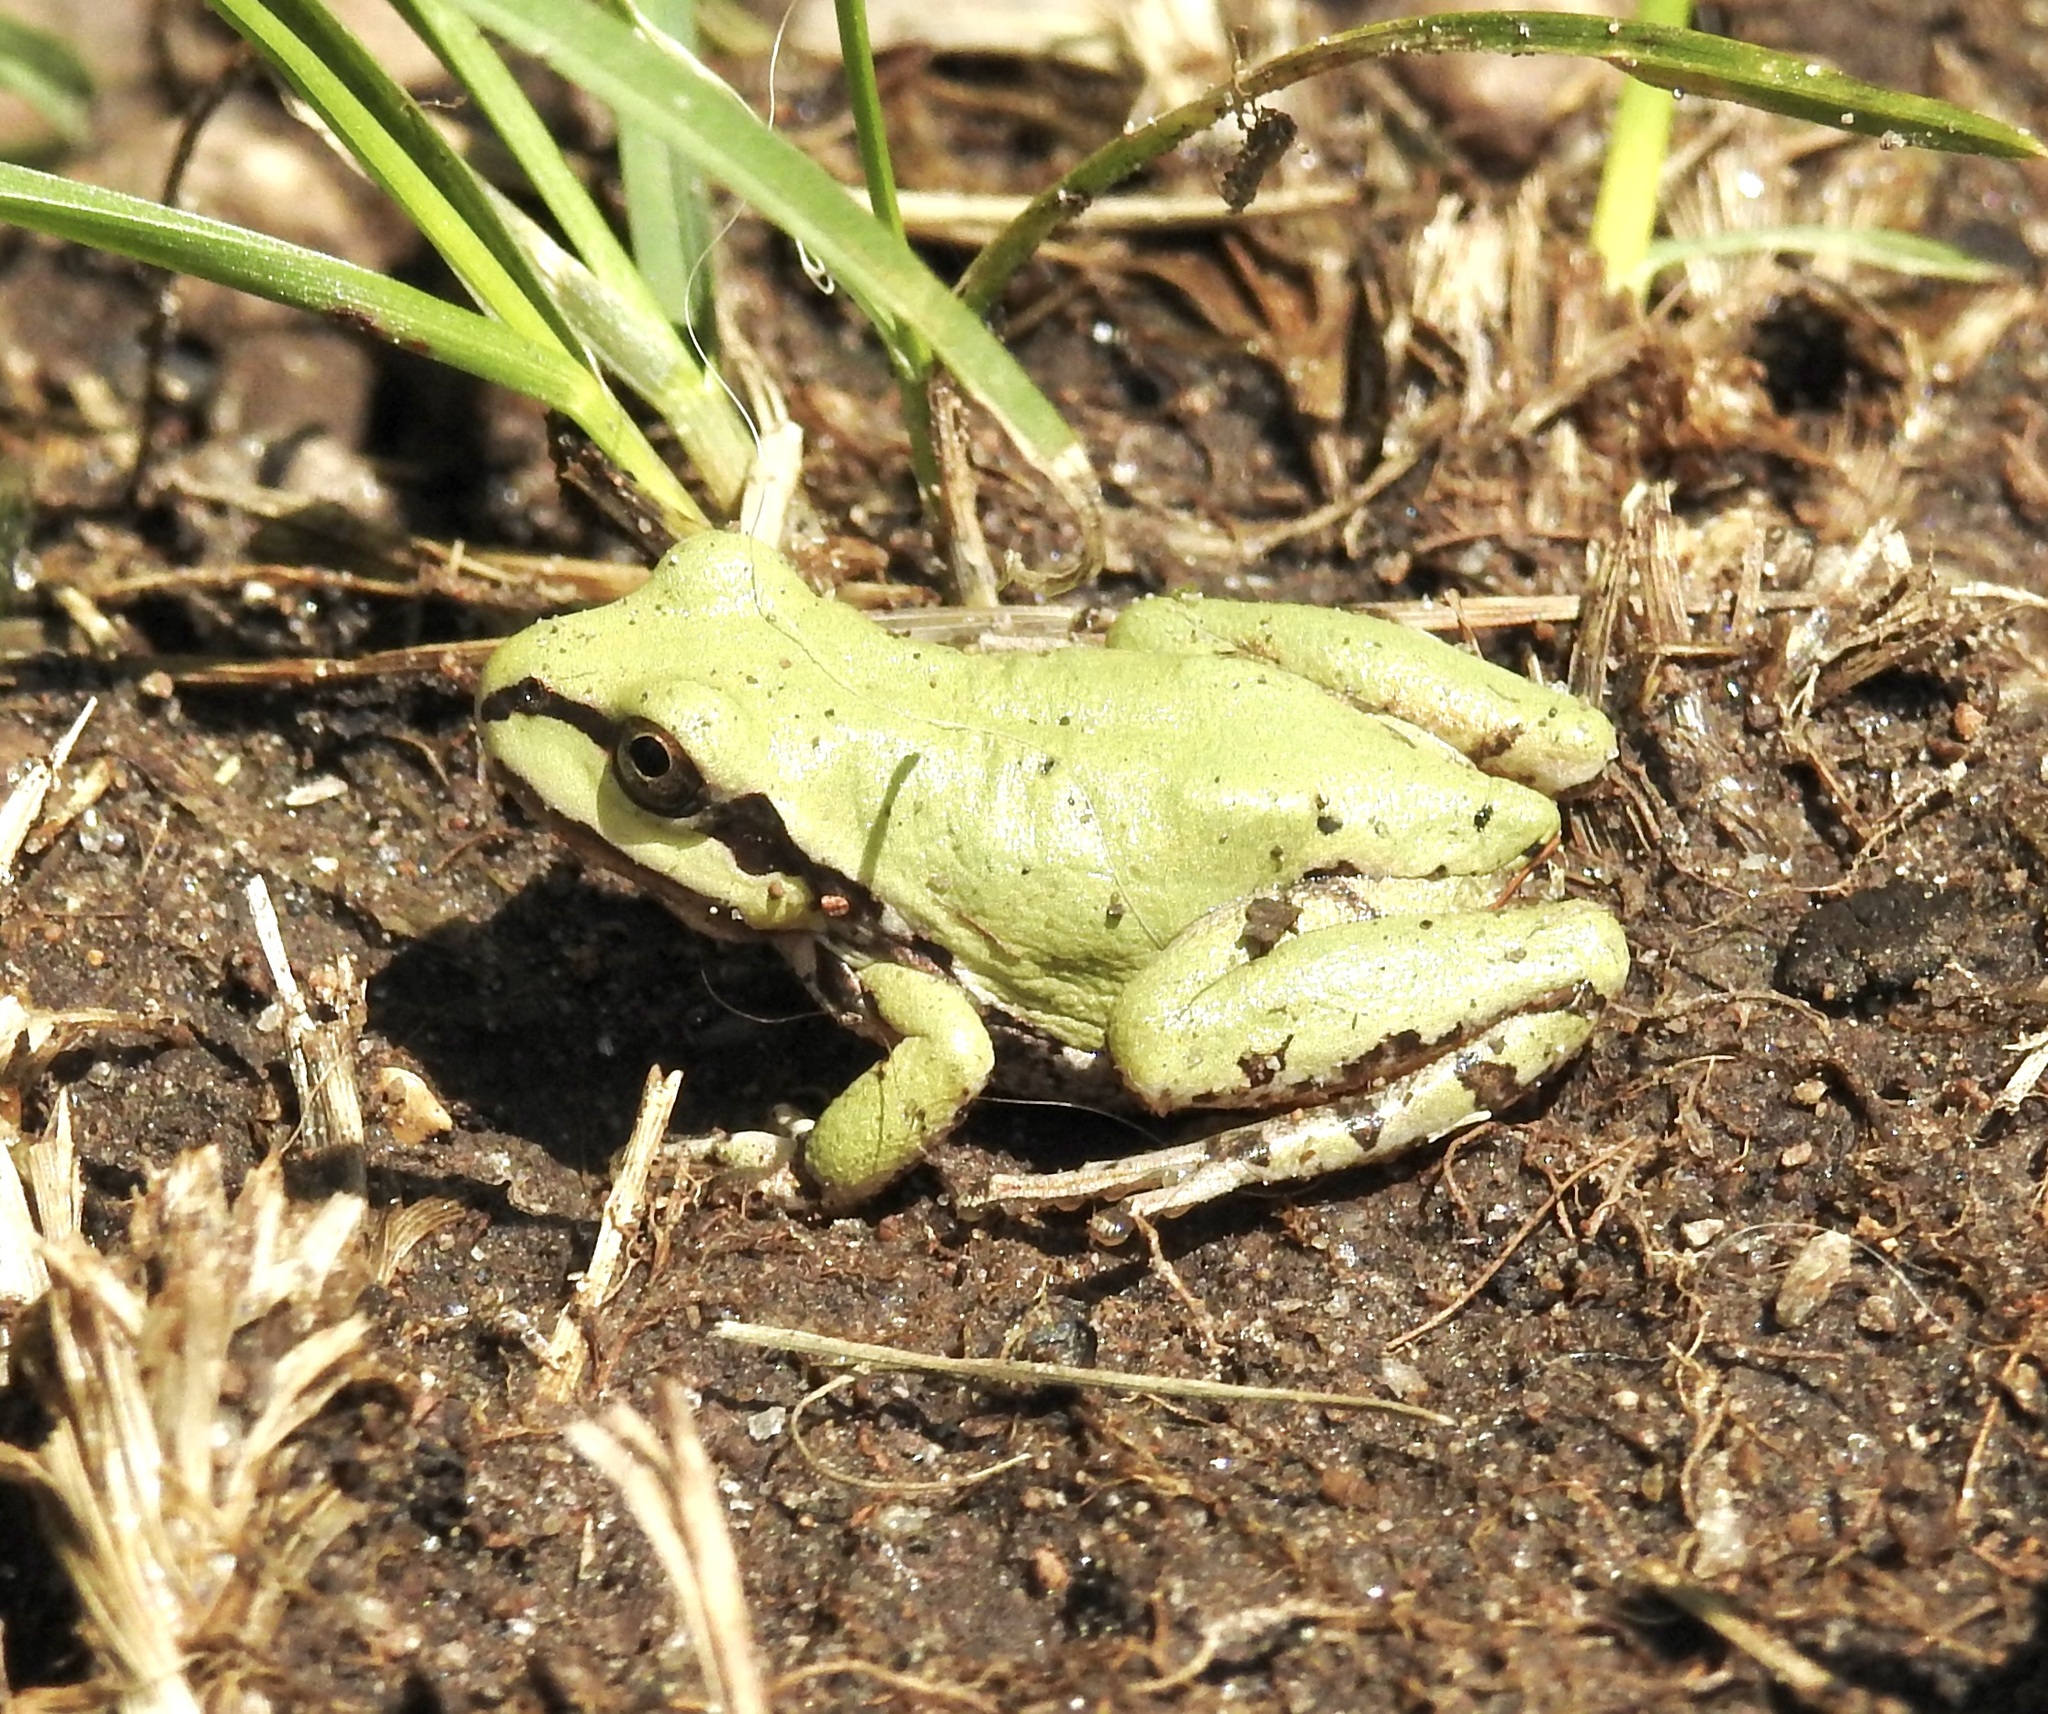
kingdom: Animalia
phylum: Chordata
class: Amphibia
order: Anura
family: Hylidae
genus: Dryophytes
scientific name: Dryophytes wrightorum
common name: Arizona treefrog
